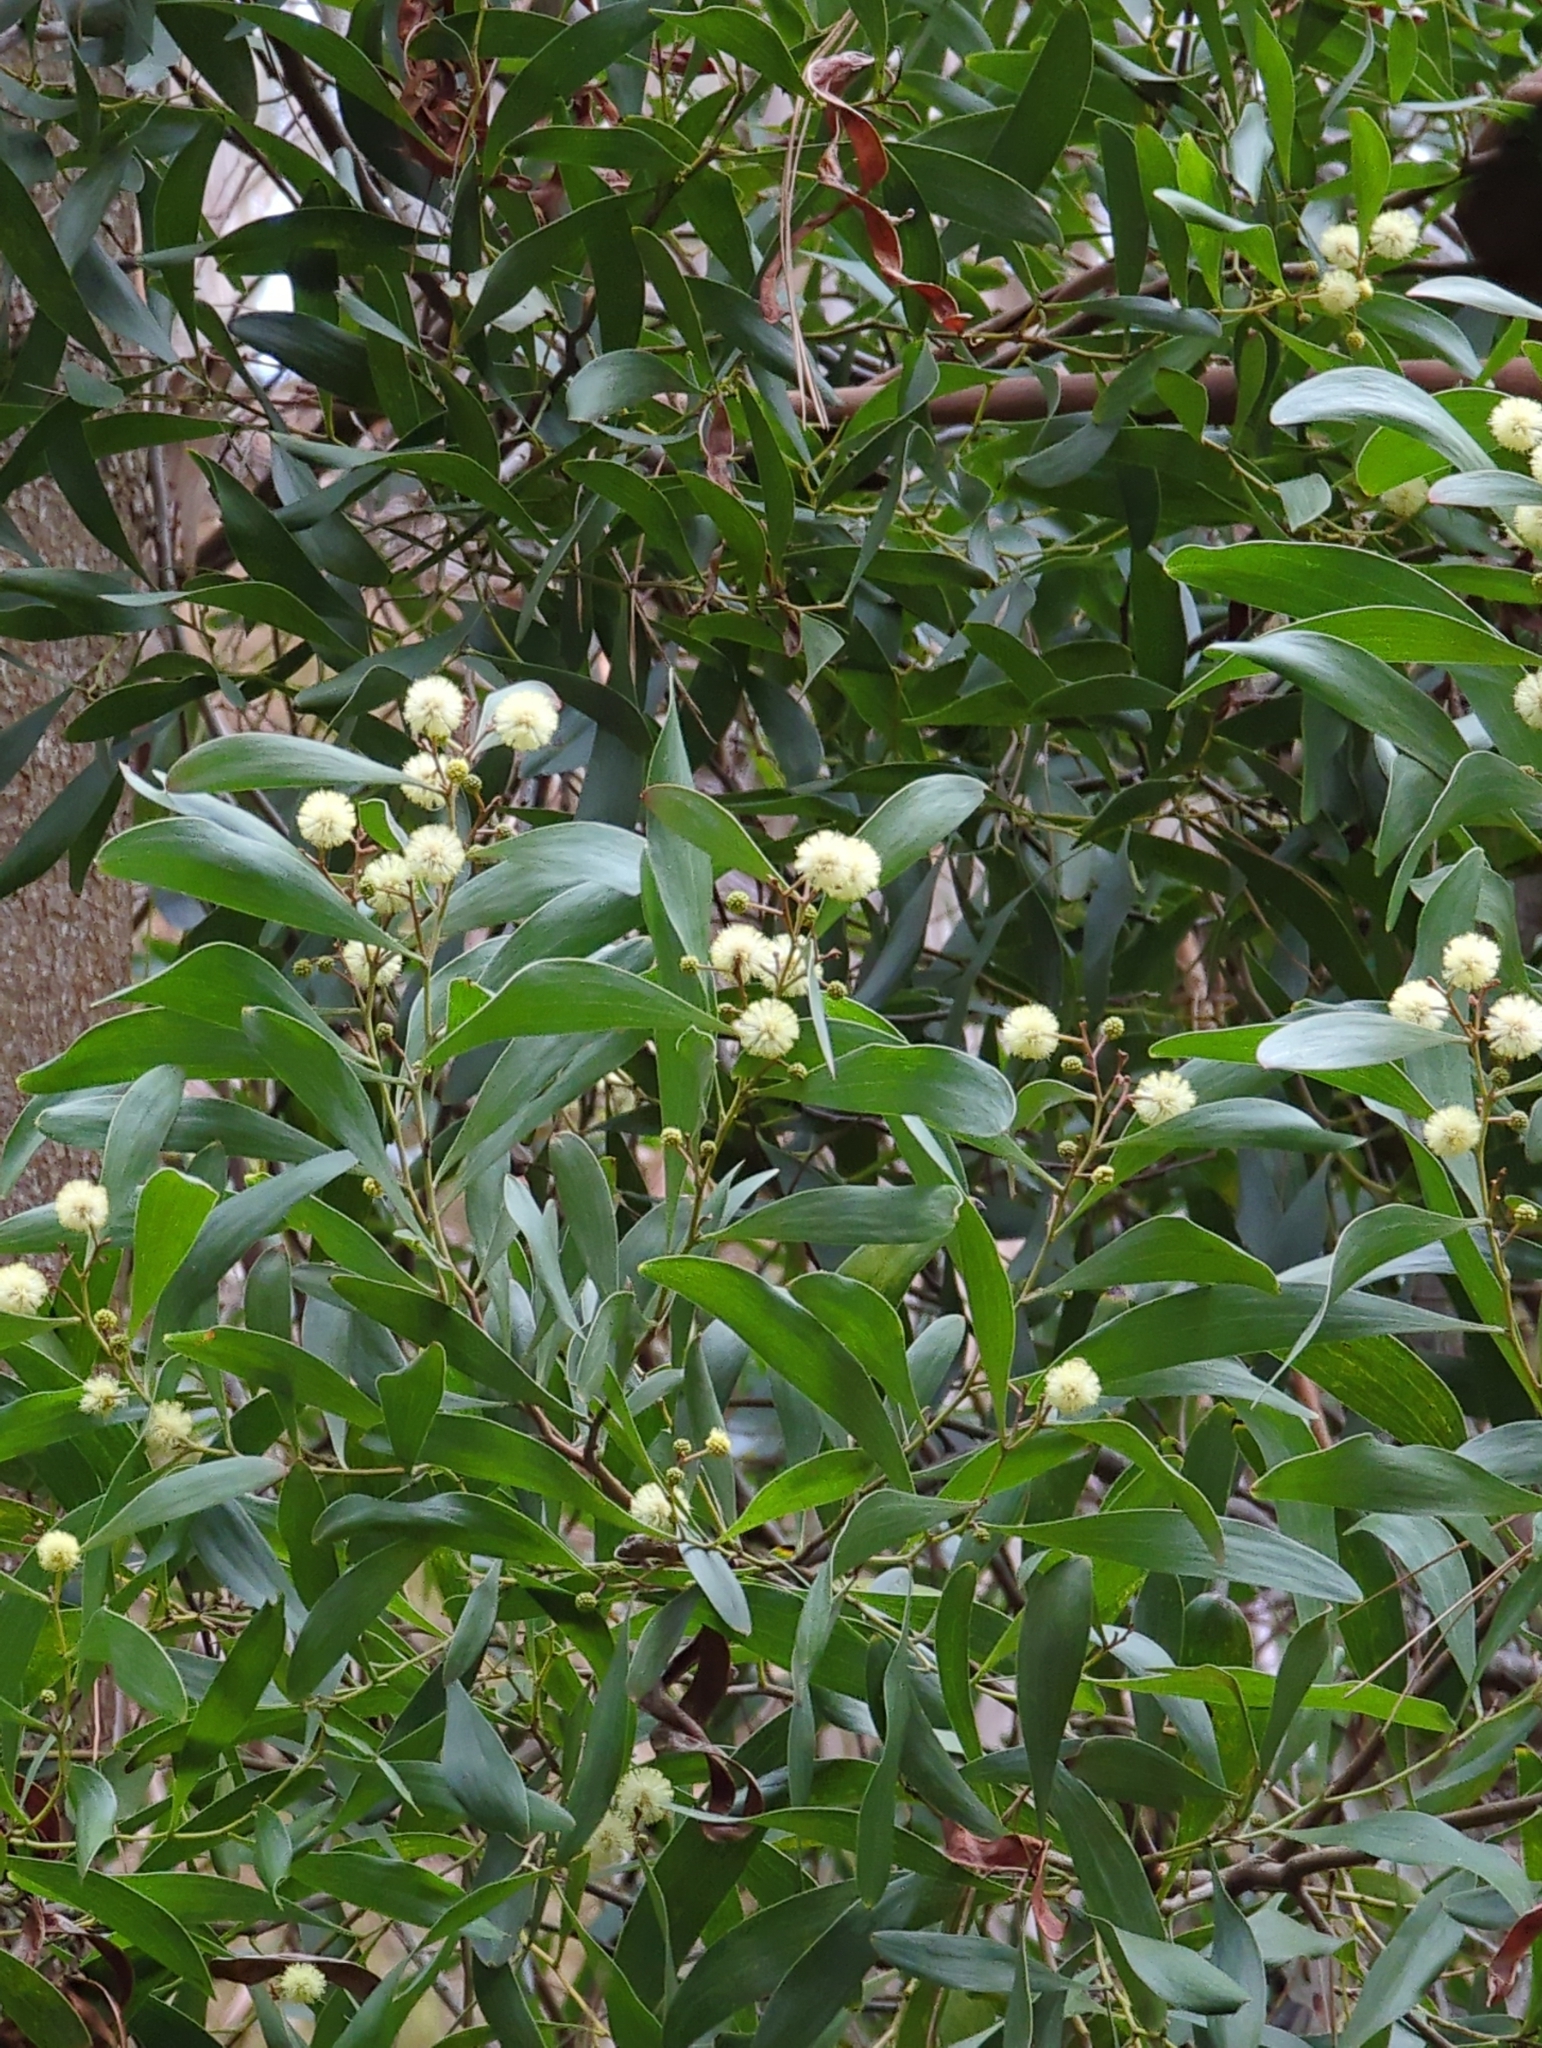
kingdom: Plantae
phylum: Tracheophyta
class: Magnoliopsida
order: Fabales
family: Fabaceae
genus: Acacia
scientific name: Acacia melanoxylon
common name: Blackwood
